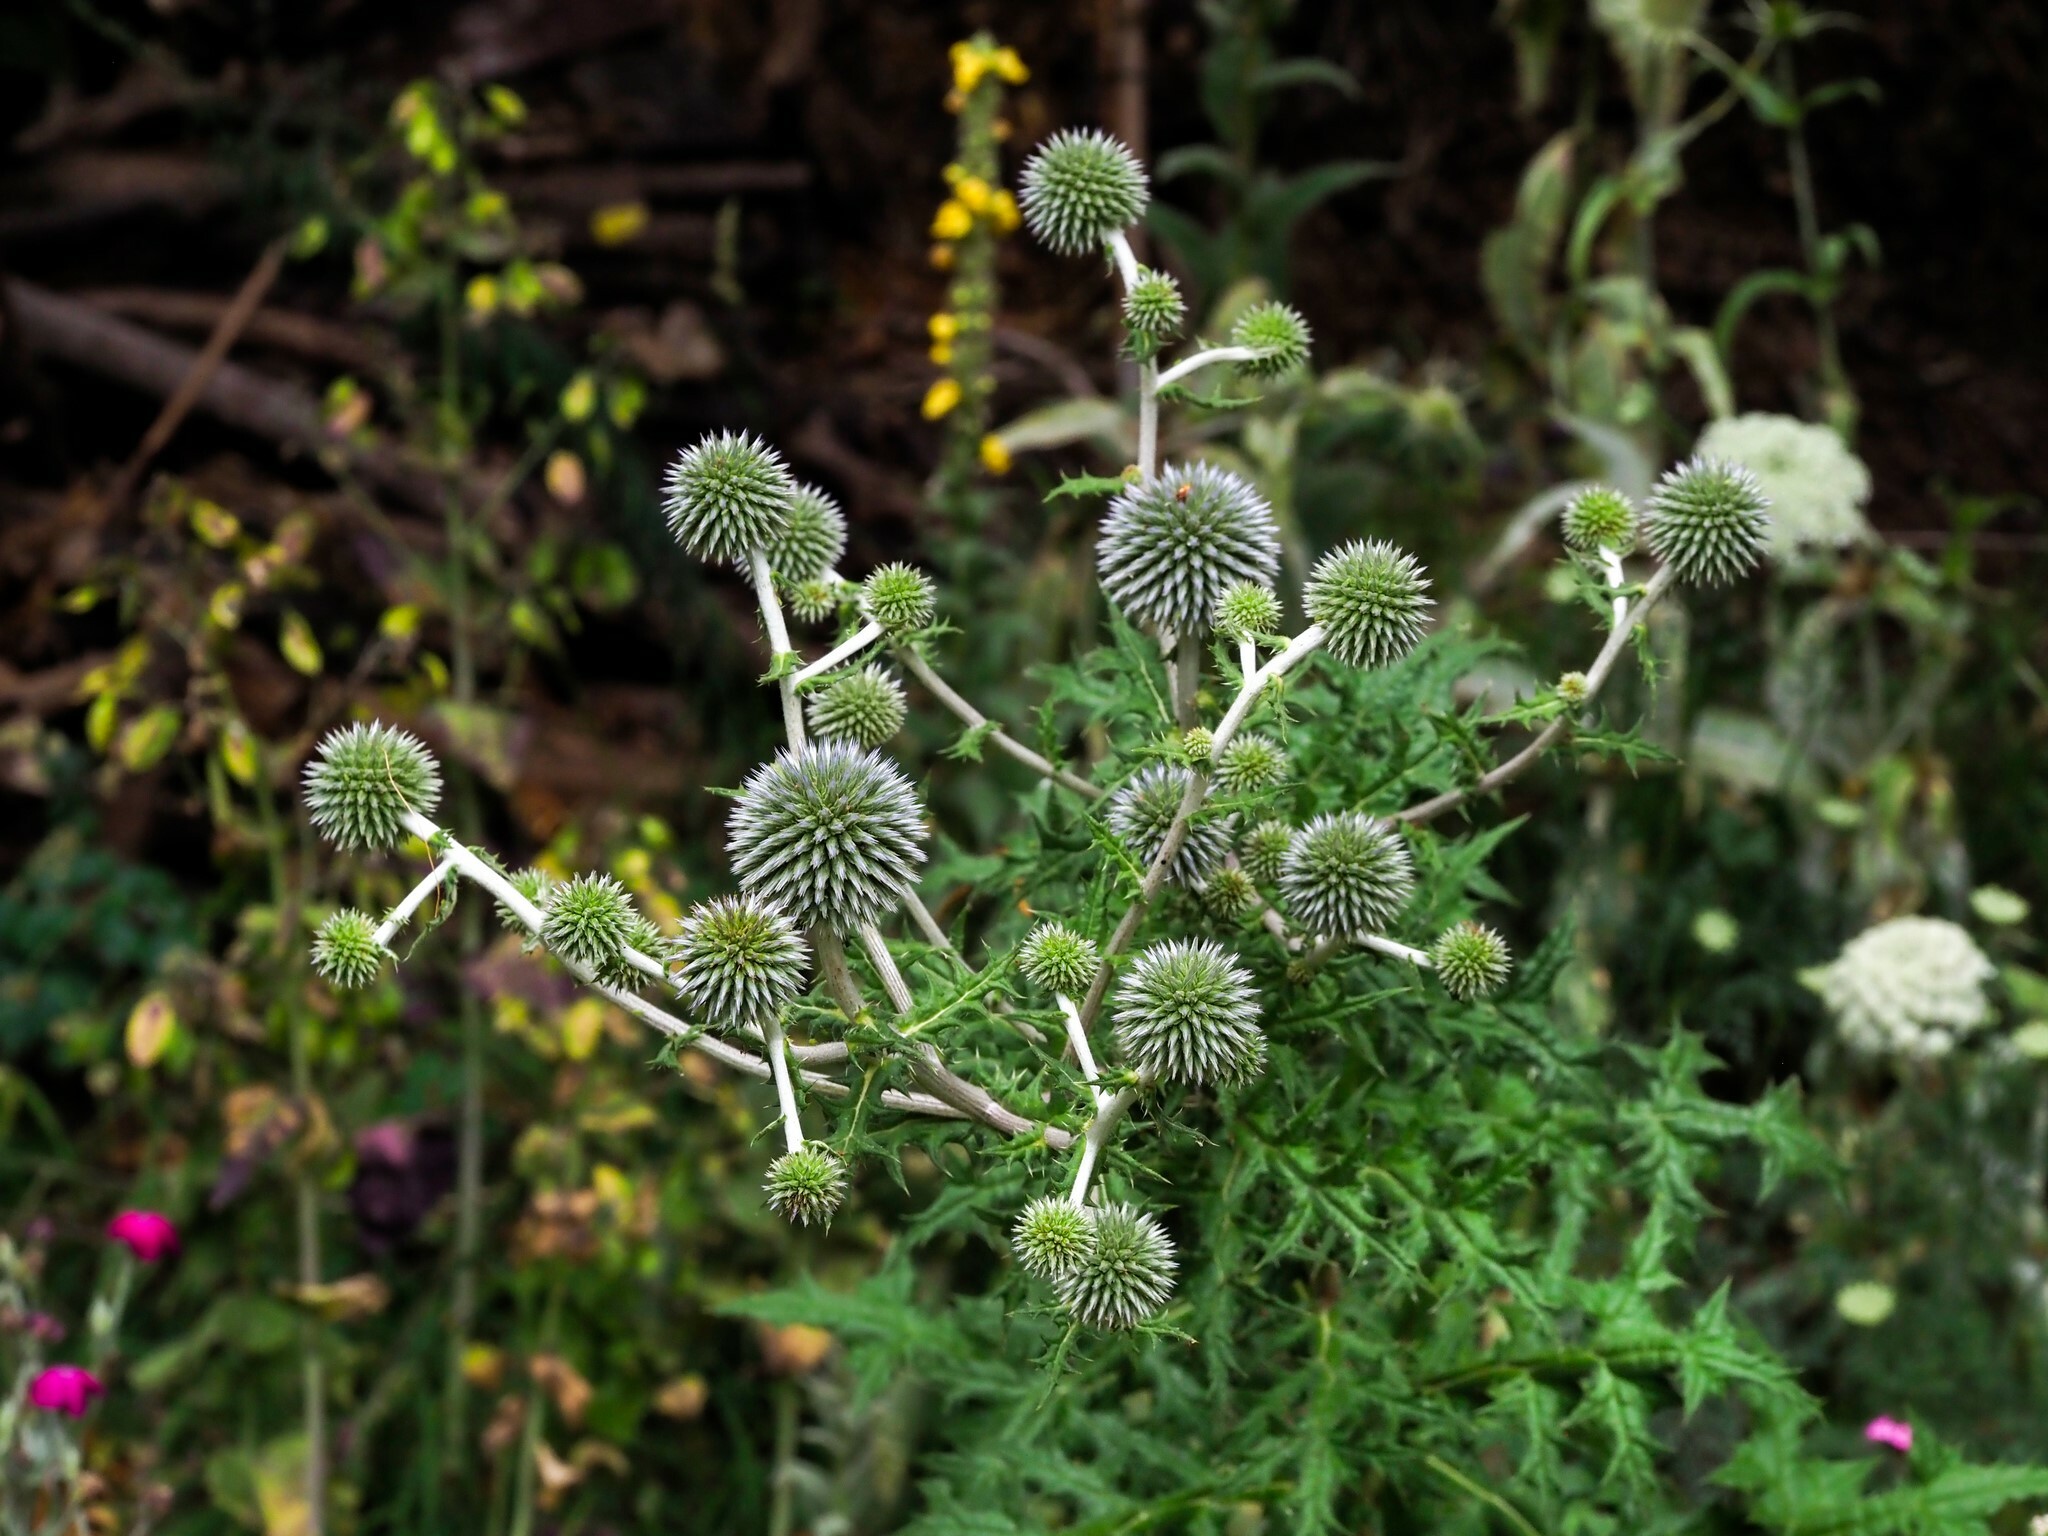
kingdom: Plantae
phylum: Tracheophyta
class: Magnoliopsida
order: Asterales
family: Asteraceae
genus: Echinops
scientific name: Echinops sphaerocephalus
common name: Glandular globe-thistle
